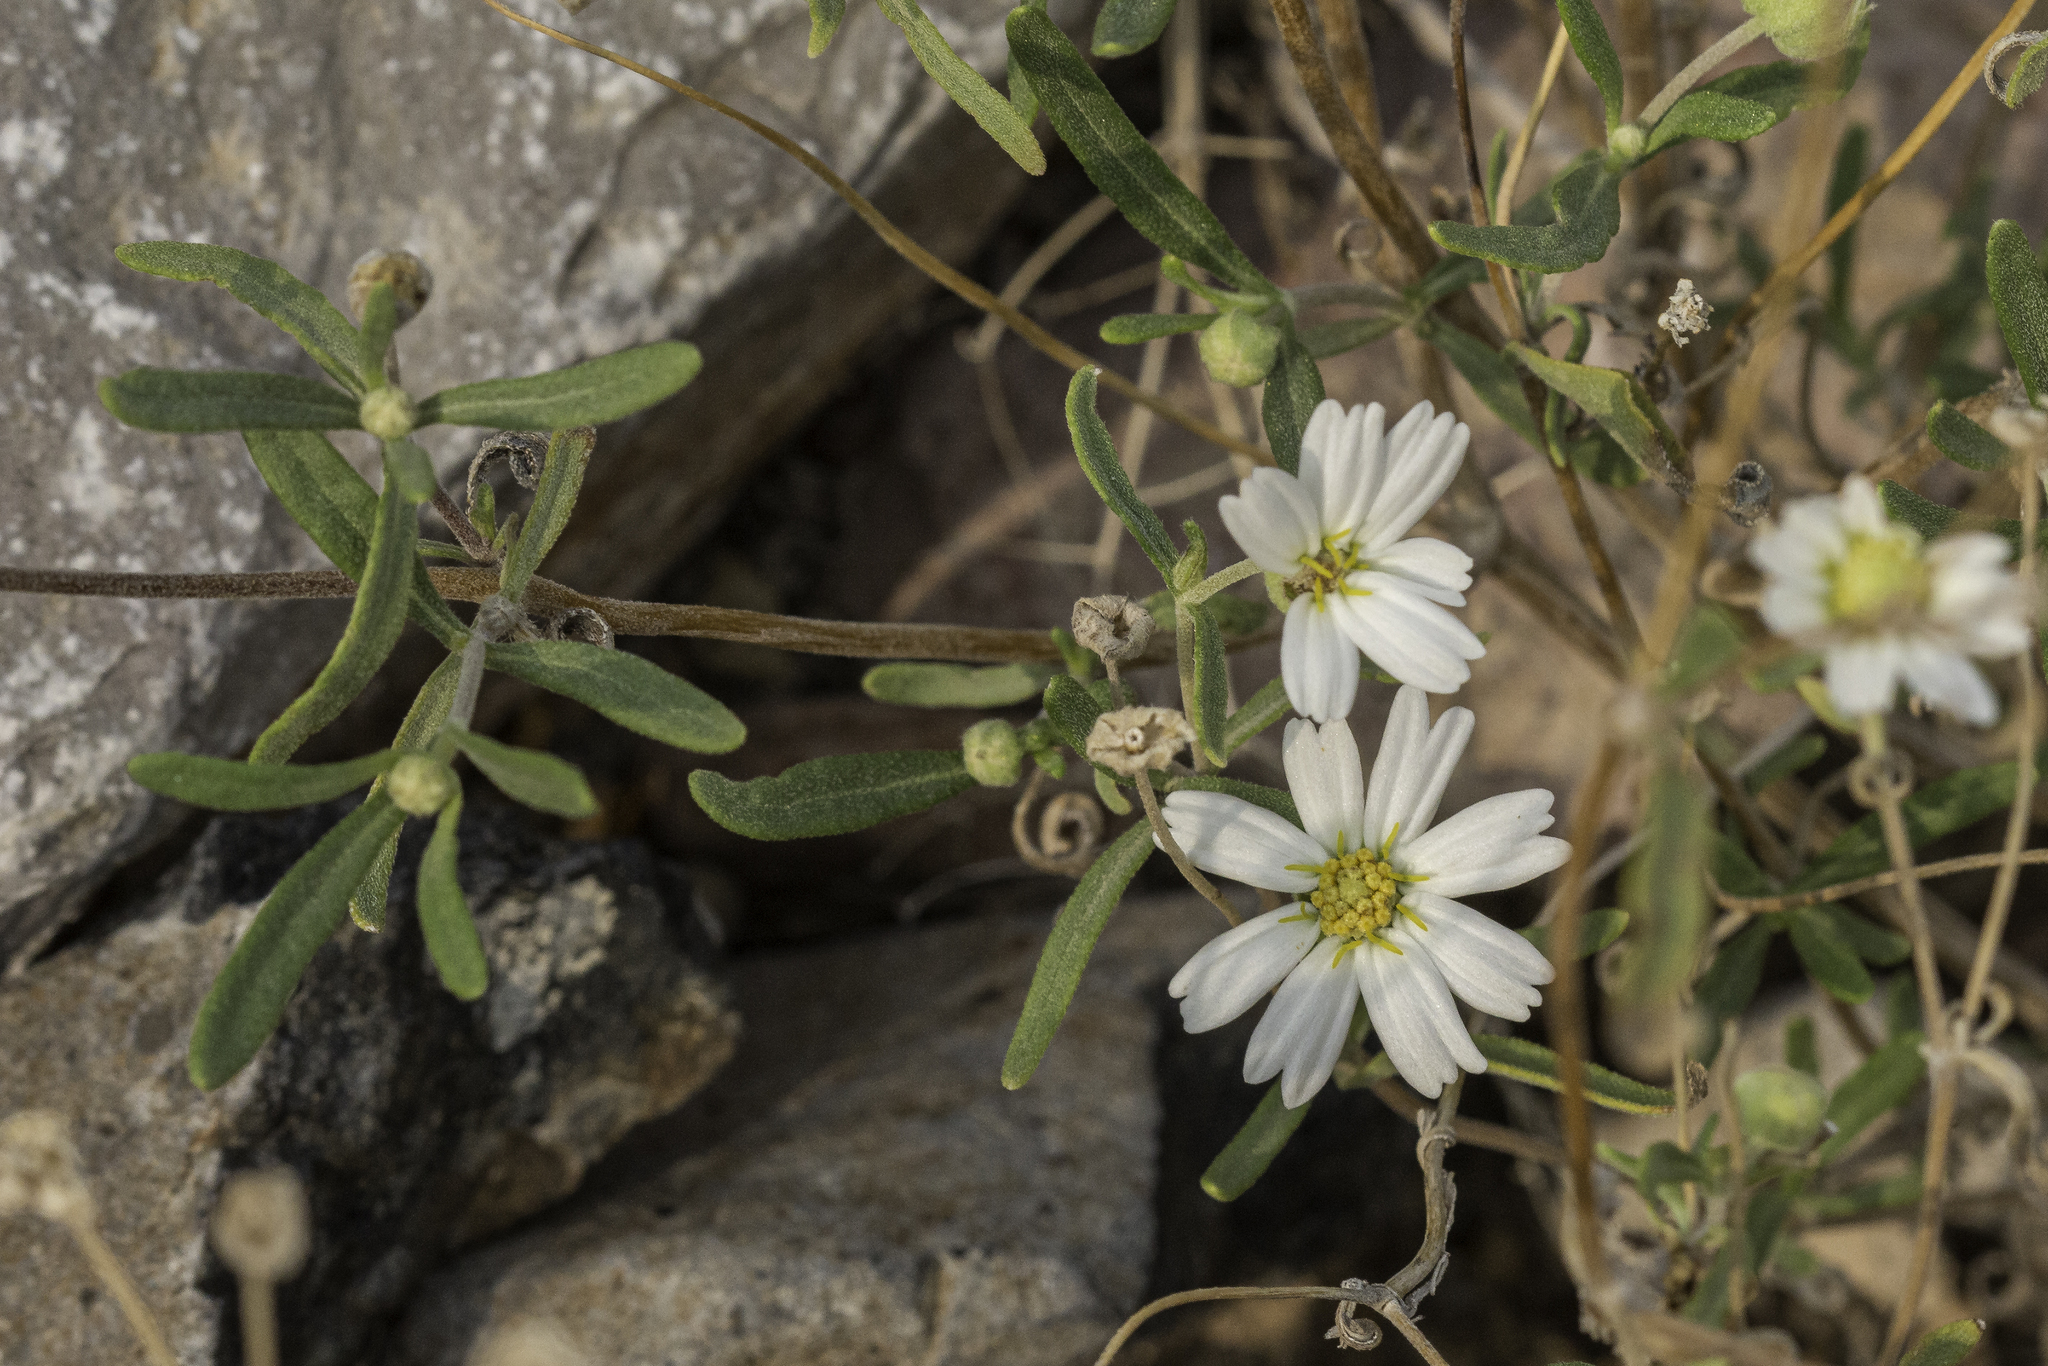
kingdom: Plantae
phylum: Tracheophyta
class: Magnoliopsida
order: Asterales
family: Asteraceae
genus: Melampodium
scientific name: Melampodium leucanthum
